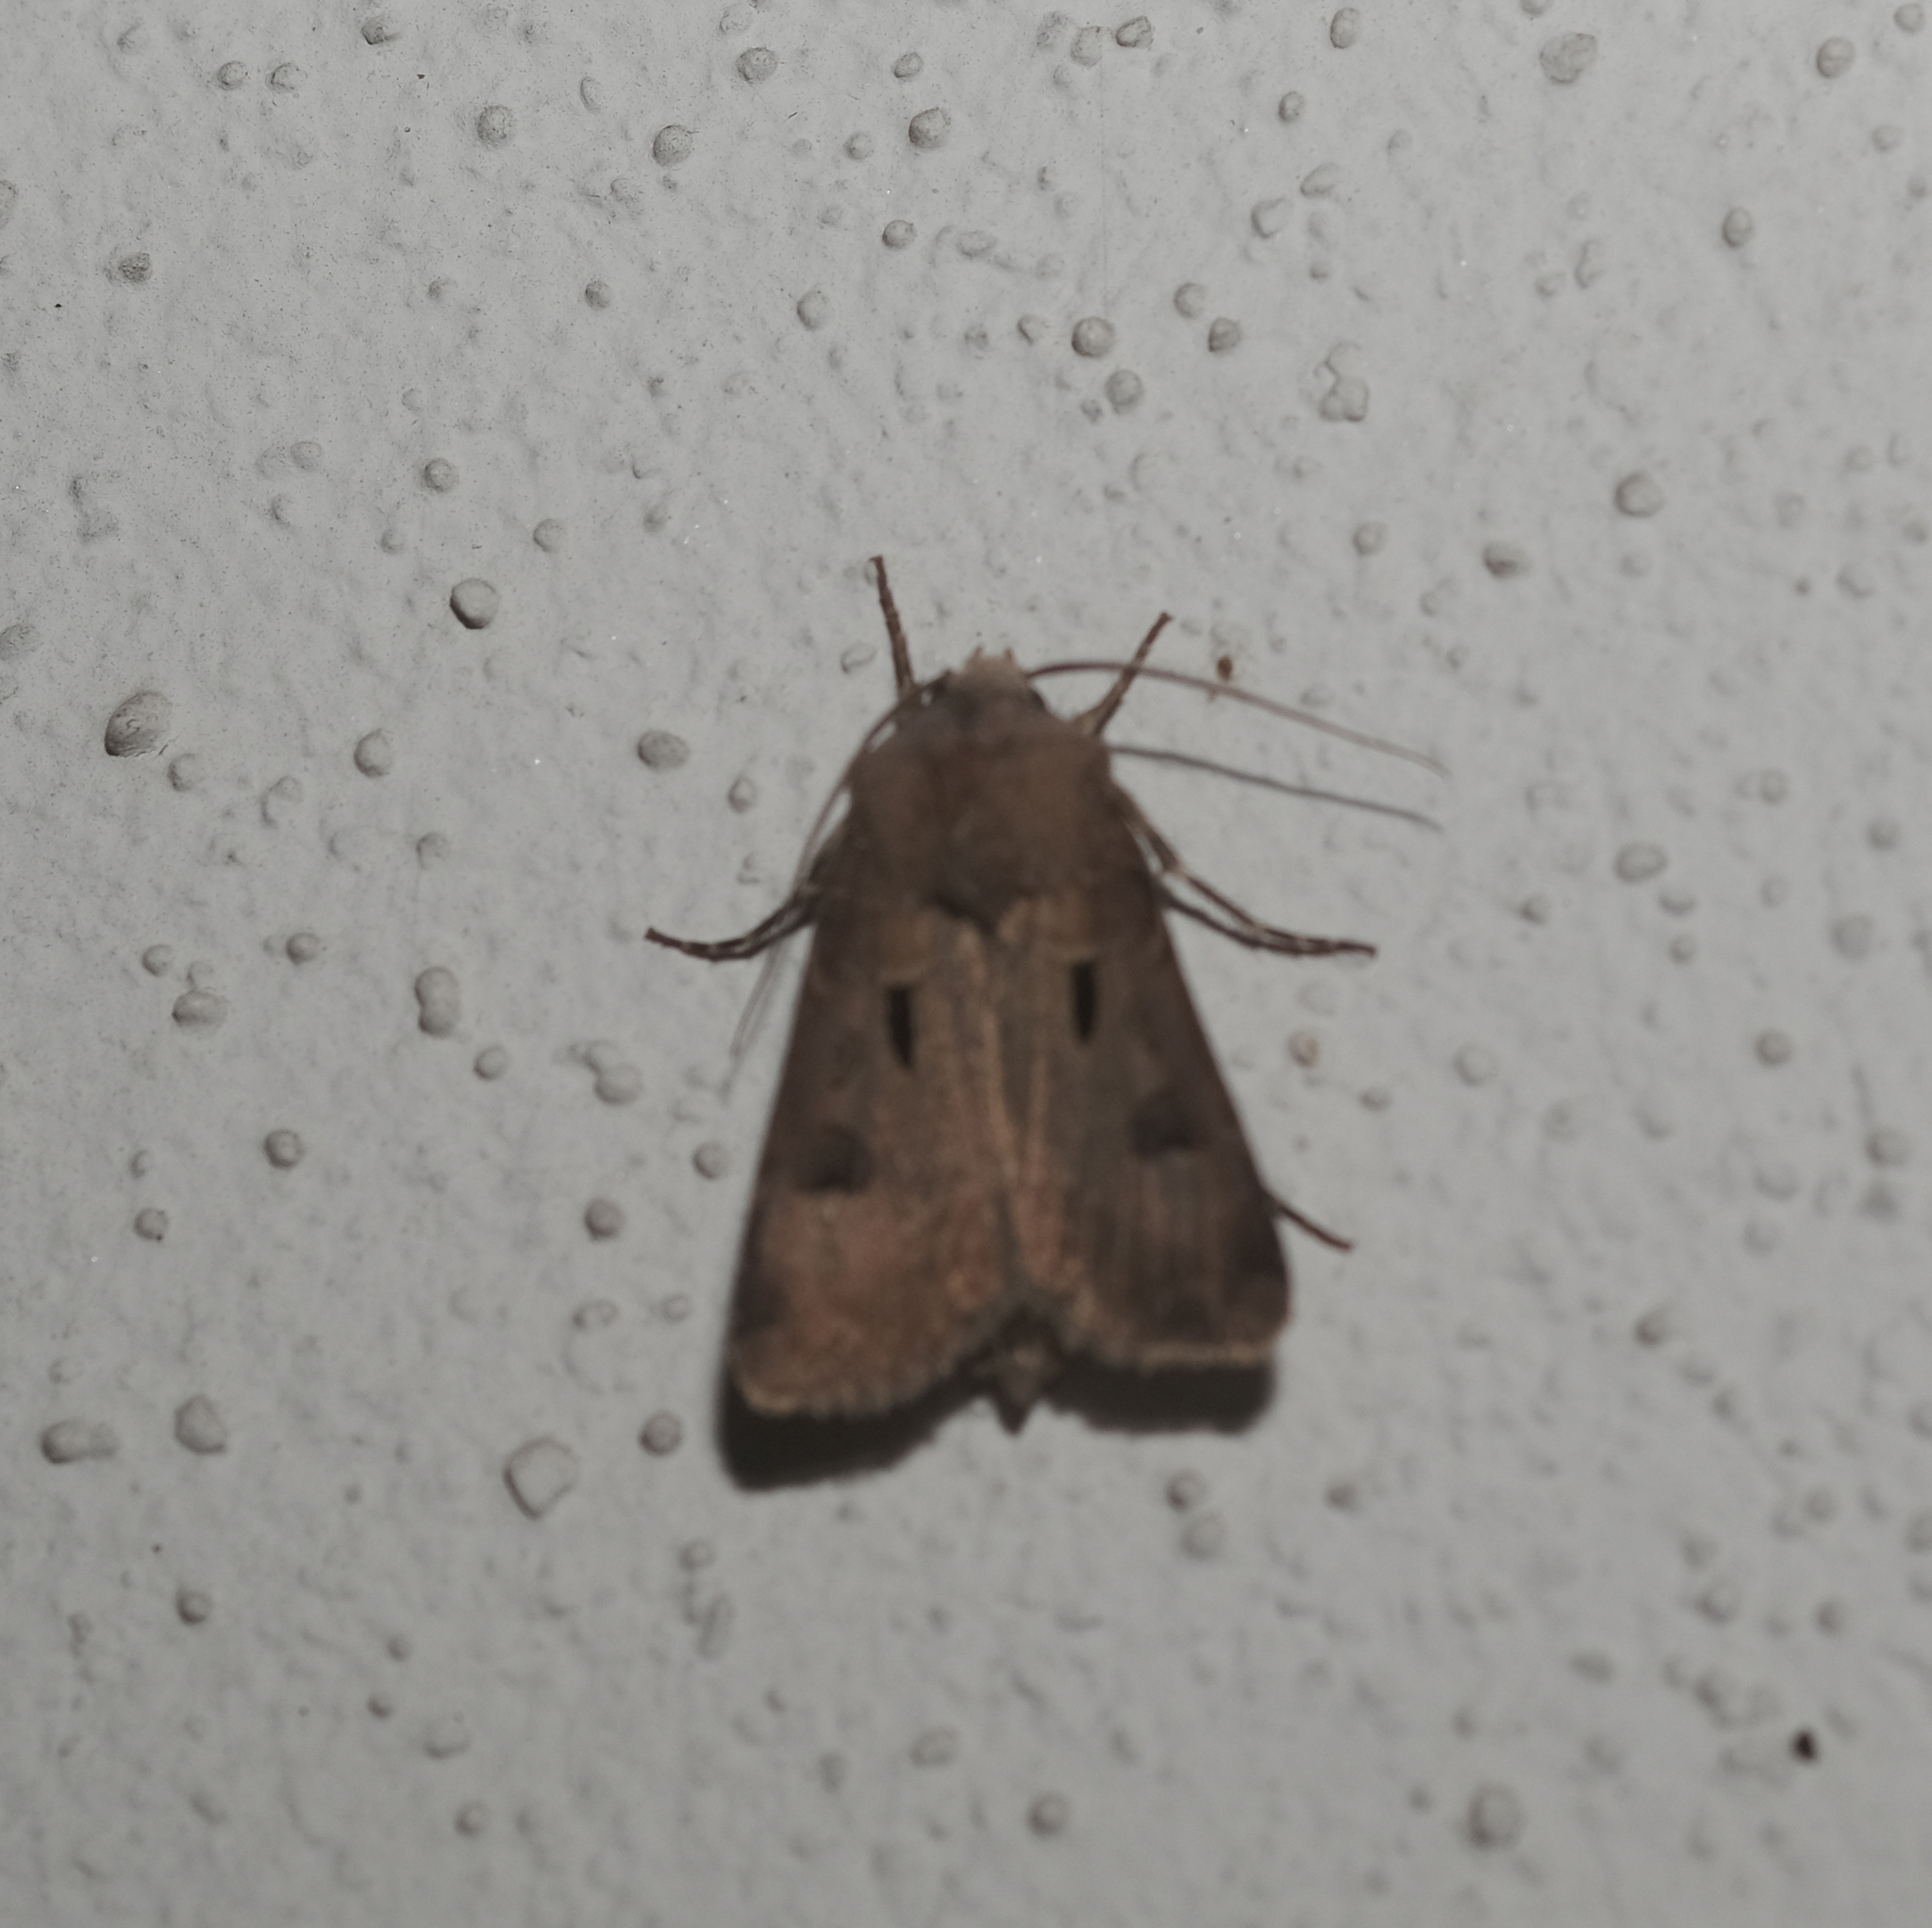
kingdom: Animalia
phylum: Arthropoda
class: Insecta
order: Lepidoptera
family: Noctuidae
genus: Agrotis
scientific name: Agrotis exclamationis
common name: Heart and dart
